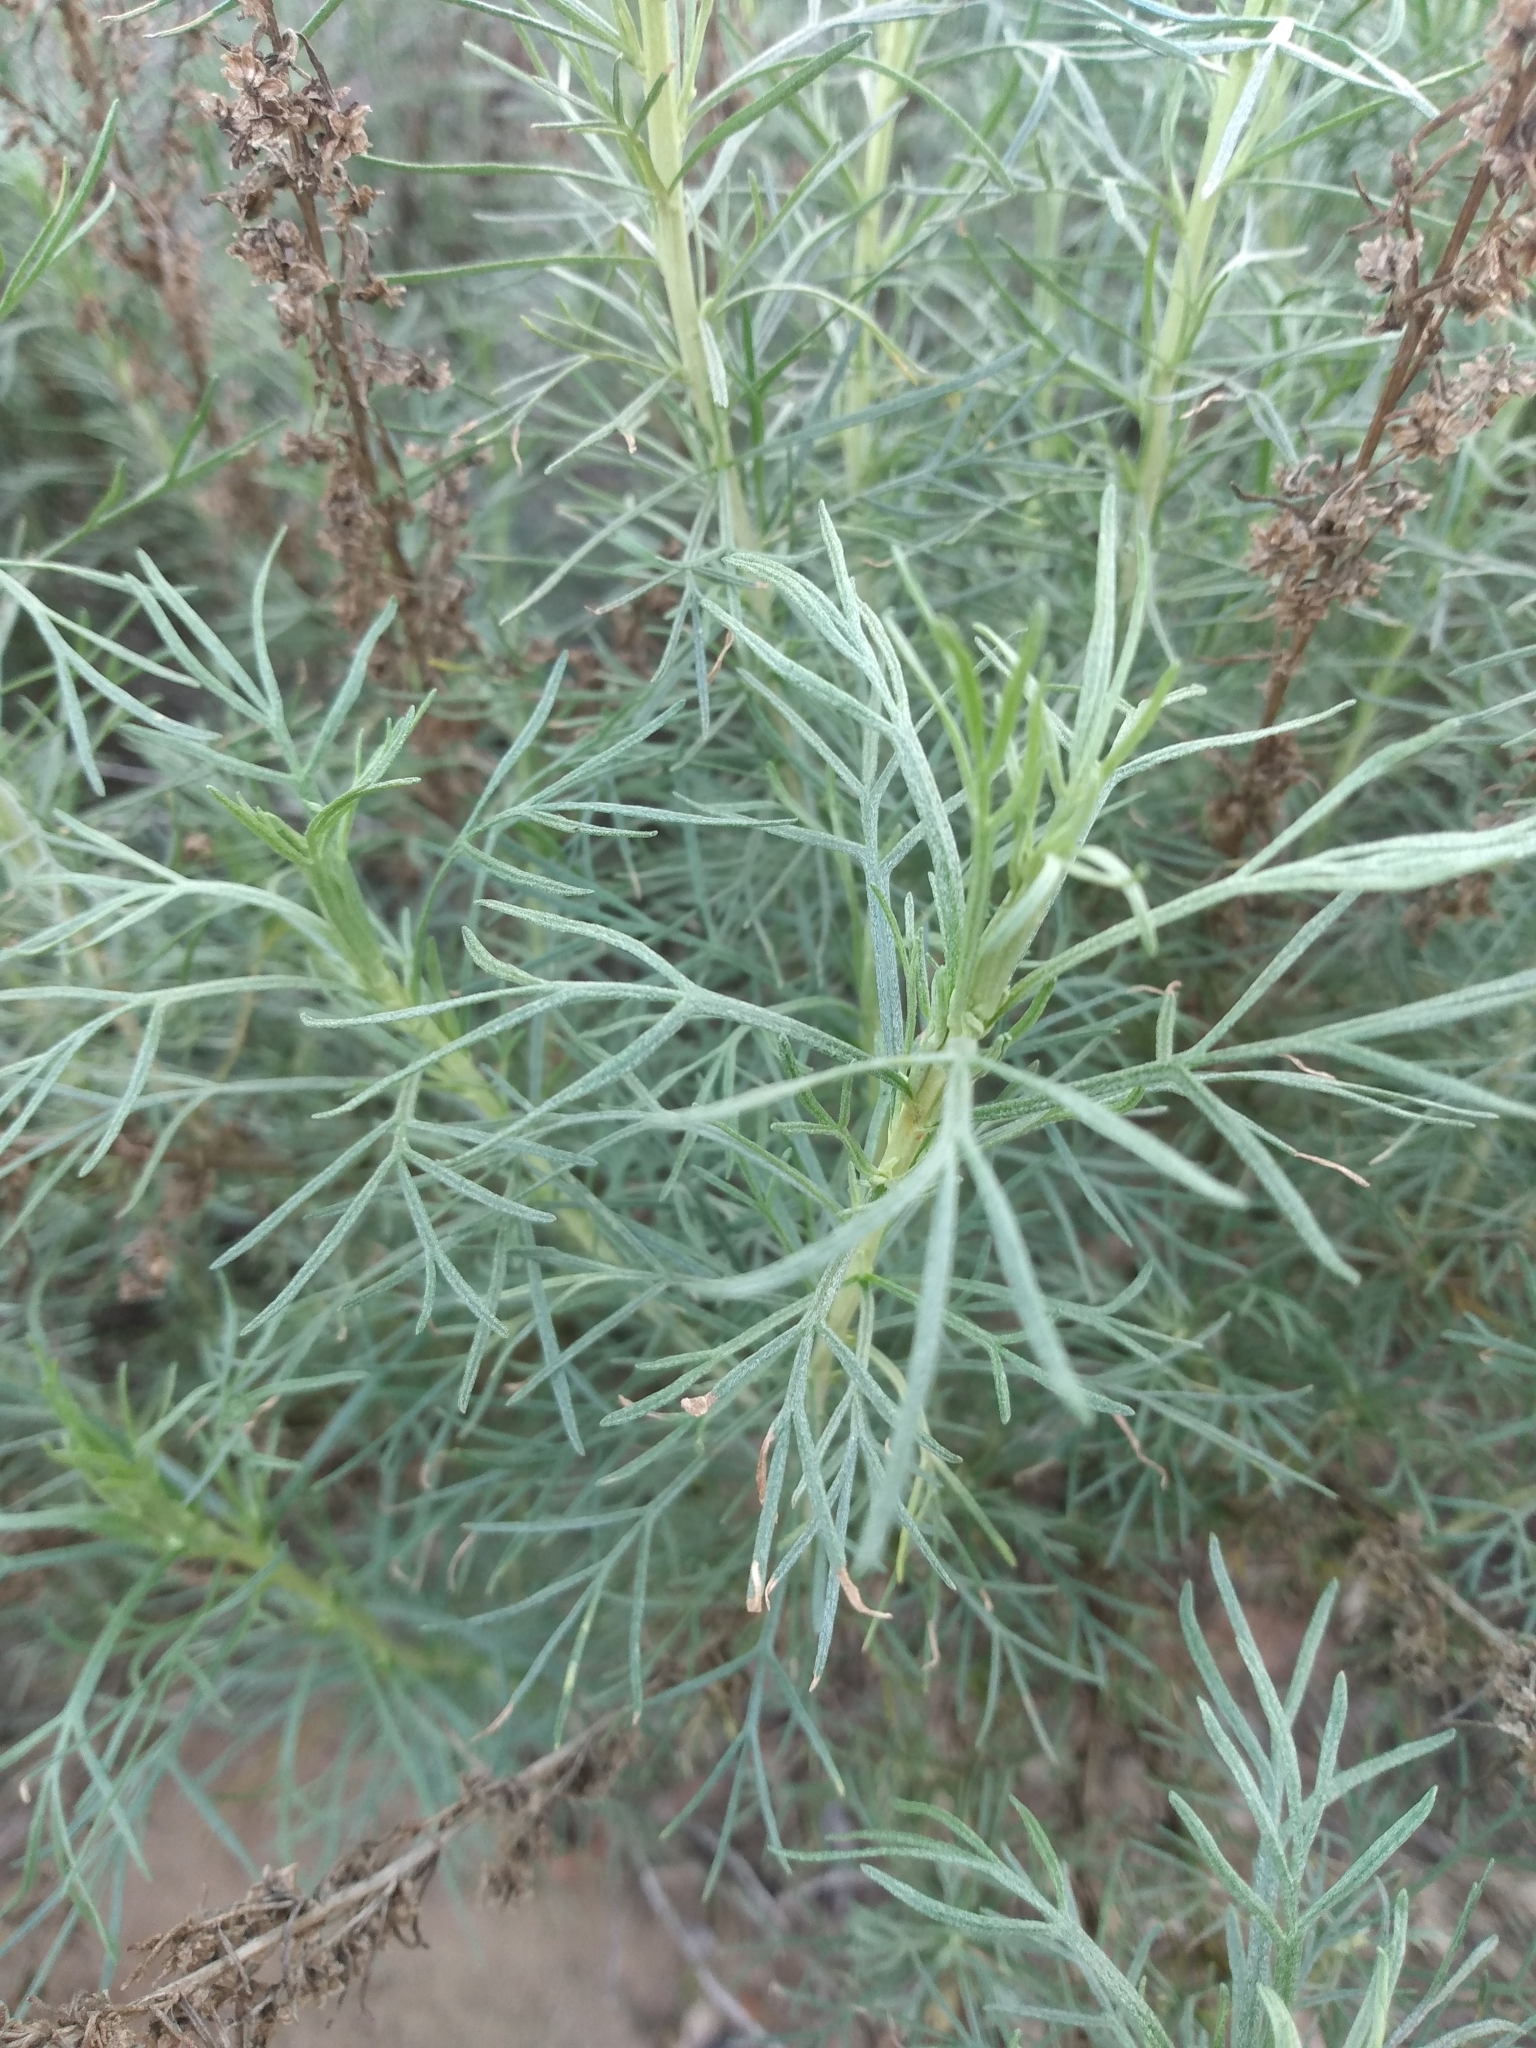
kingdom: Plantae
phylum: Tracheophyta
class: Magnoliopsida
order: Asterales
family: Asteraceae
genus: Artemisia
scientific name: Artemisia californica
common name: California sagebrush
